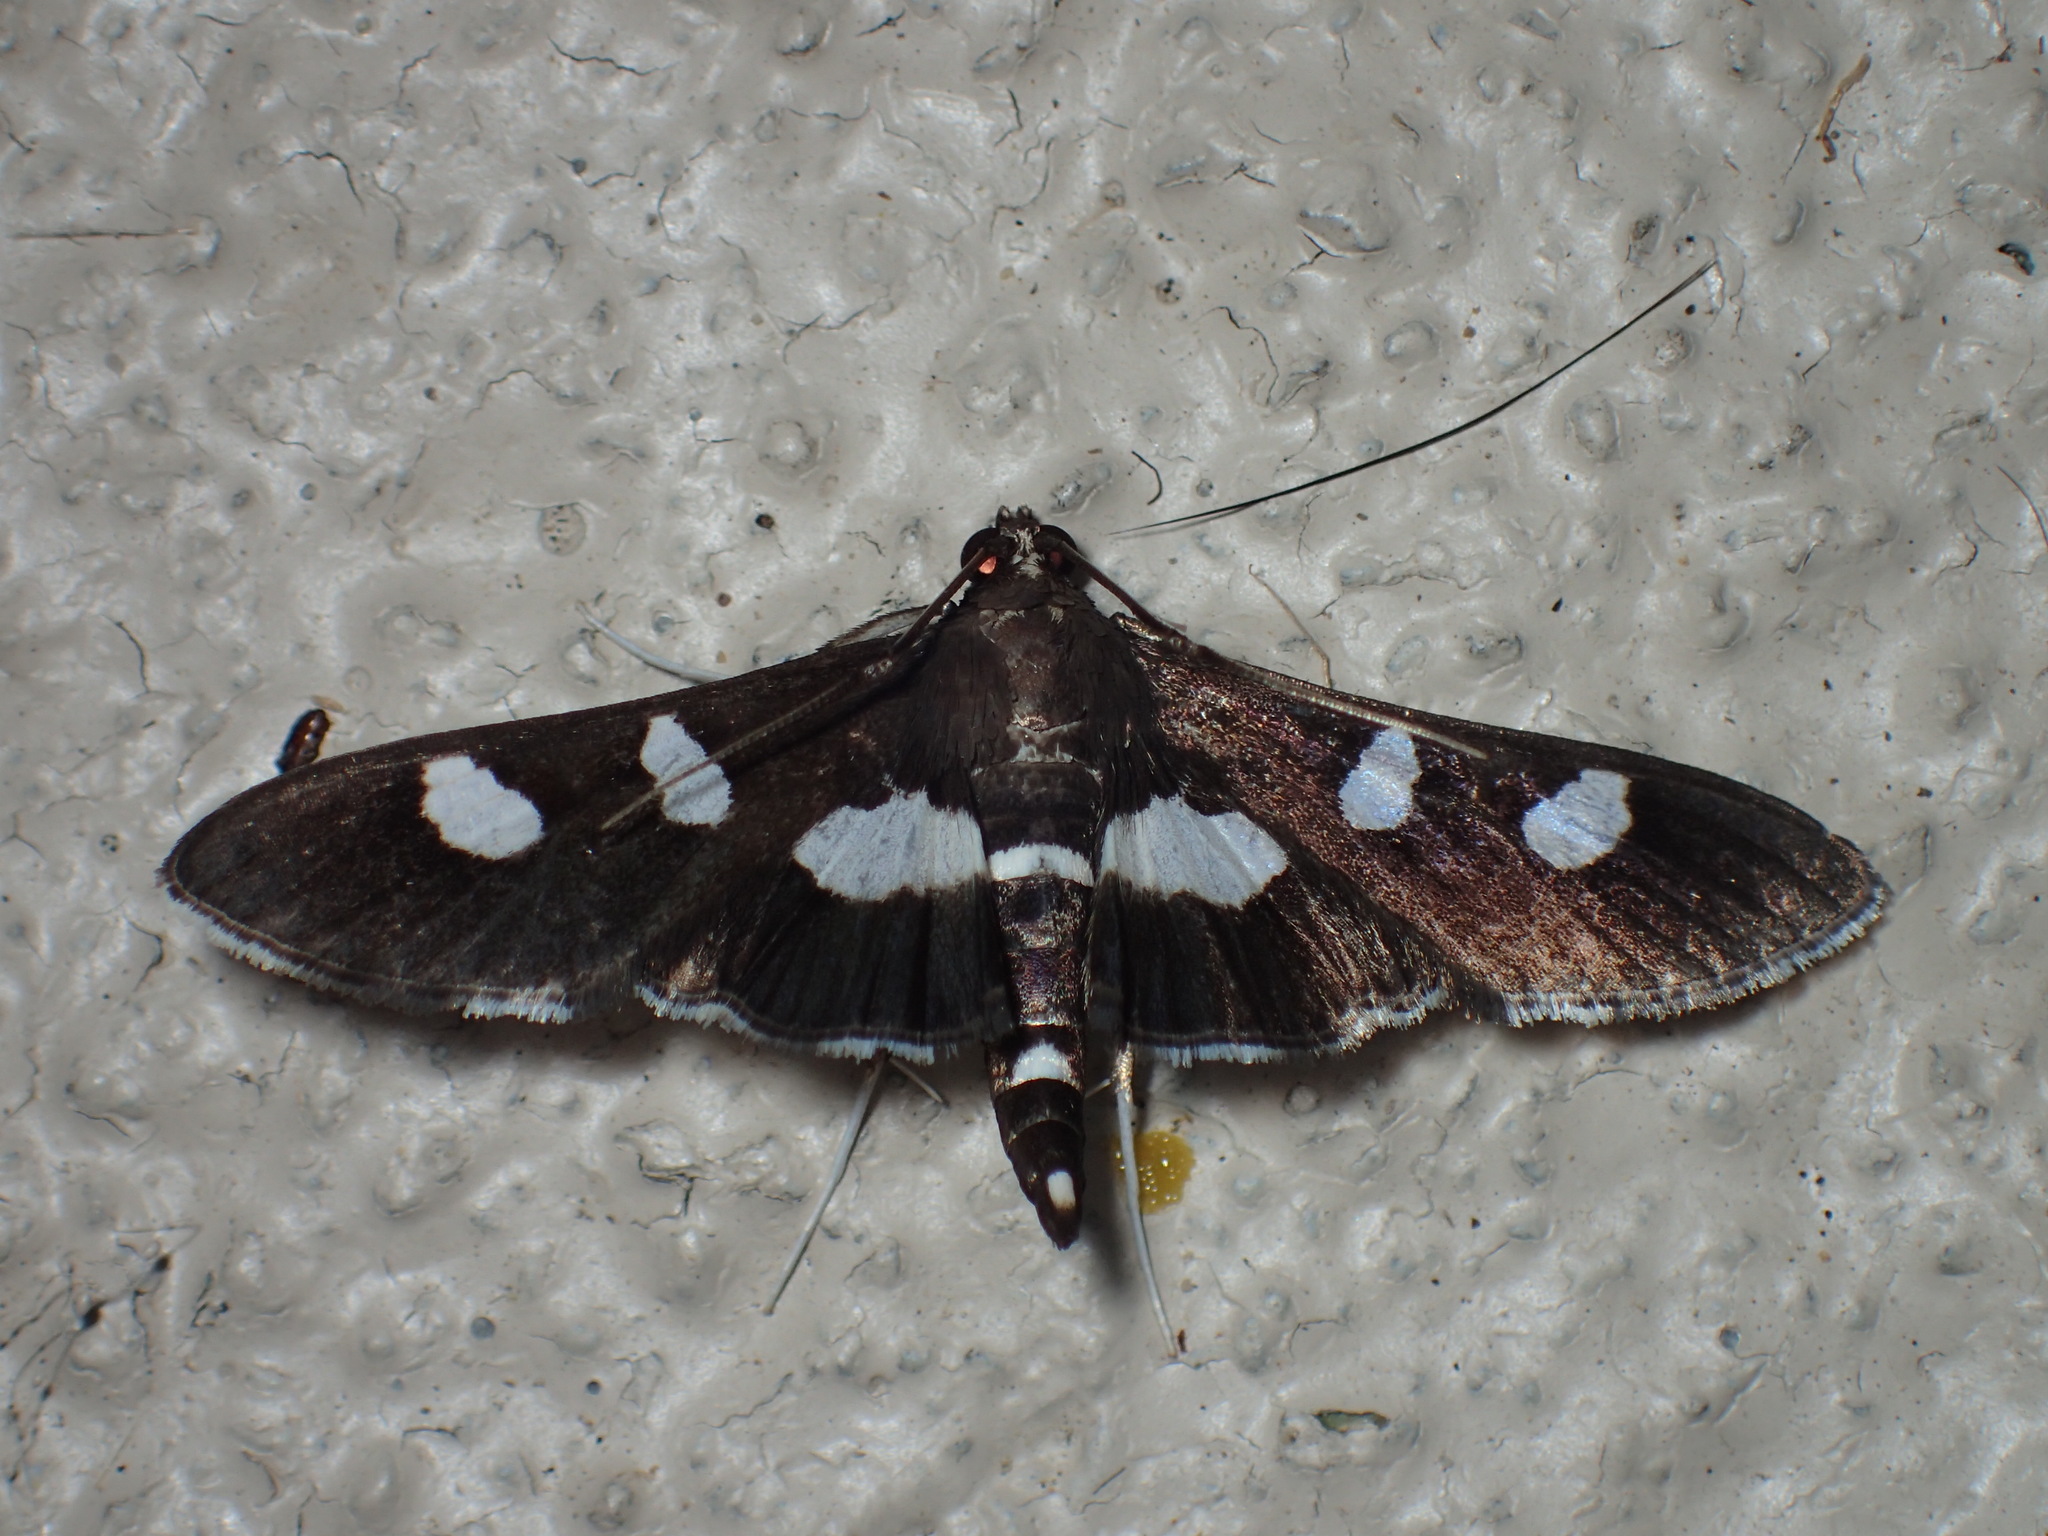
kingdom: Animalia
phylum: Arthropoda
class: Insecta
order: Lepidoptera
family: Crambidae
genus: Desmia
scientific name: Desmia
